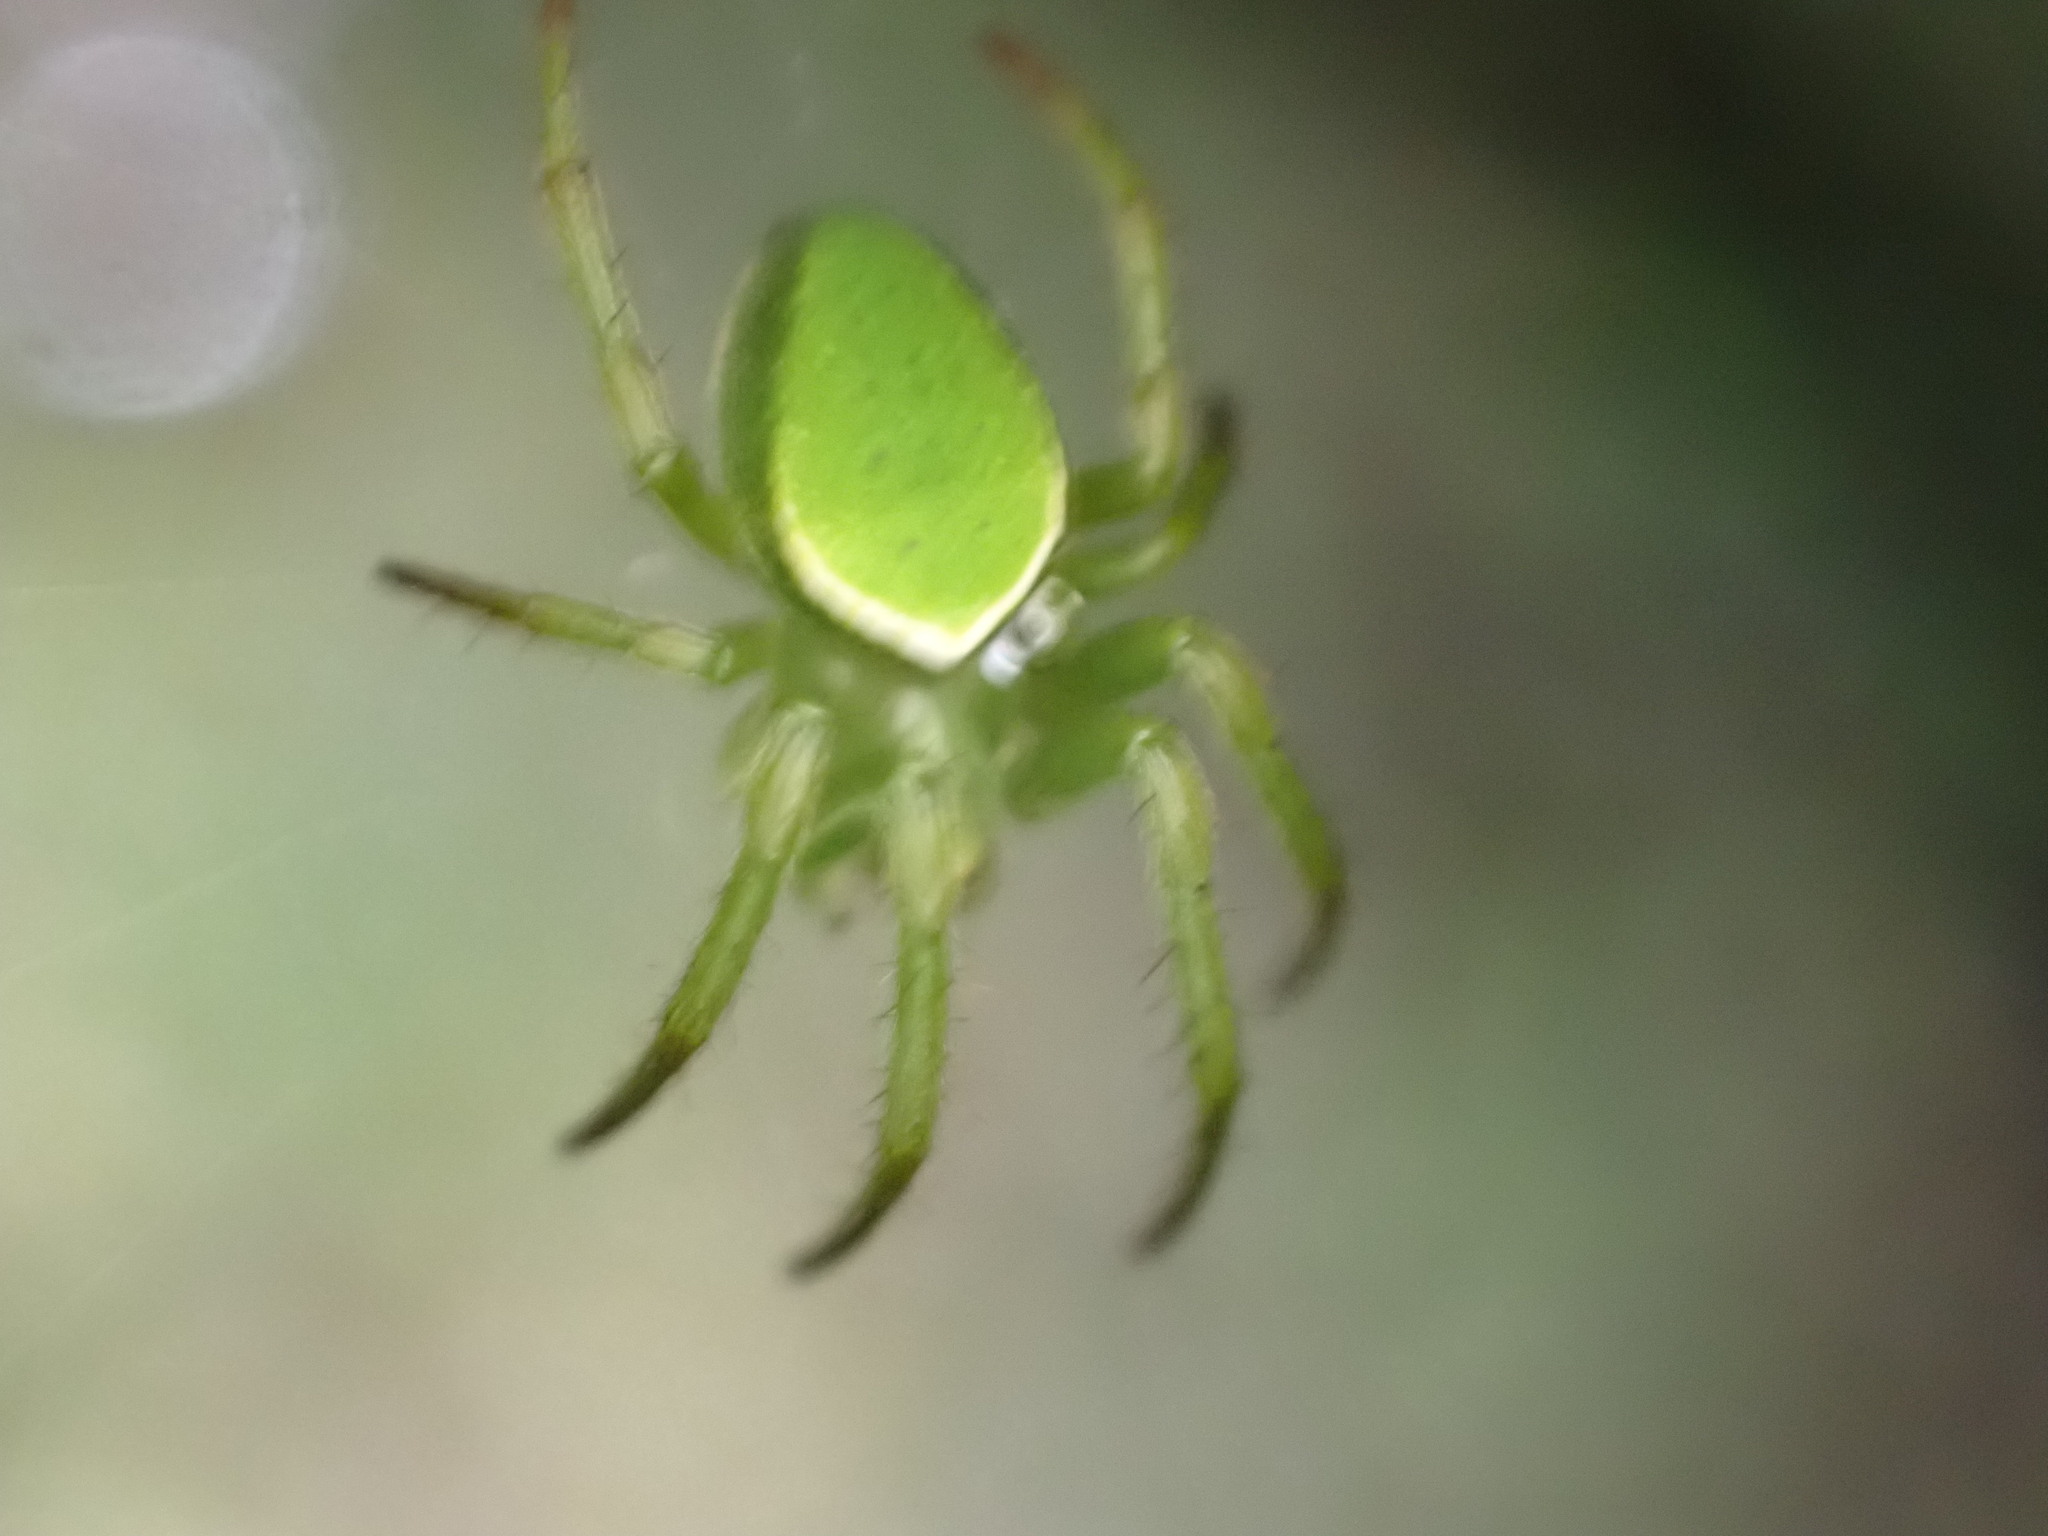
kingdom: Animalia
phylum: Arthropoda
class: Arachnida
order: Araneae
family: Araneidae
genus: Colaranea
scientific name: Colaranea viriditas
